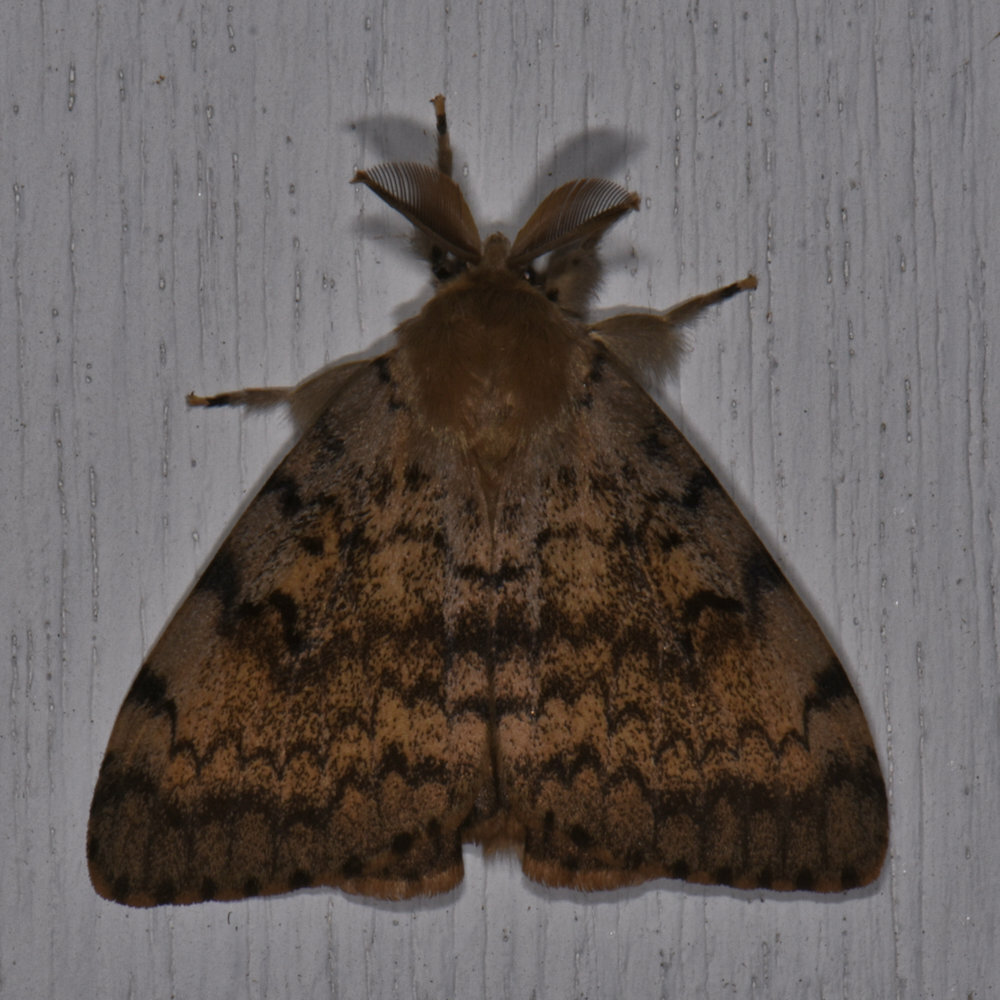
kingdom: Animalia
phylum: Arthropoda
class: Insecta
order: Lepidoptera
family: Erebidae
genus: Lymantria
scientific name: Lymantria dispar
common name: Gypsy moth
